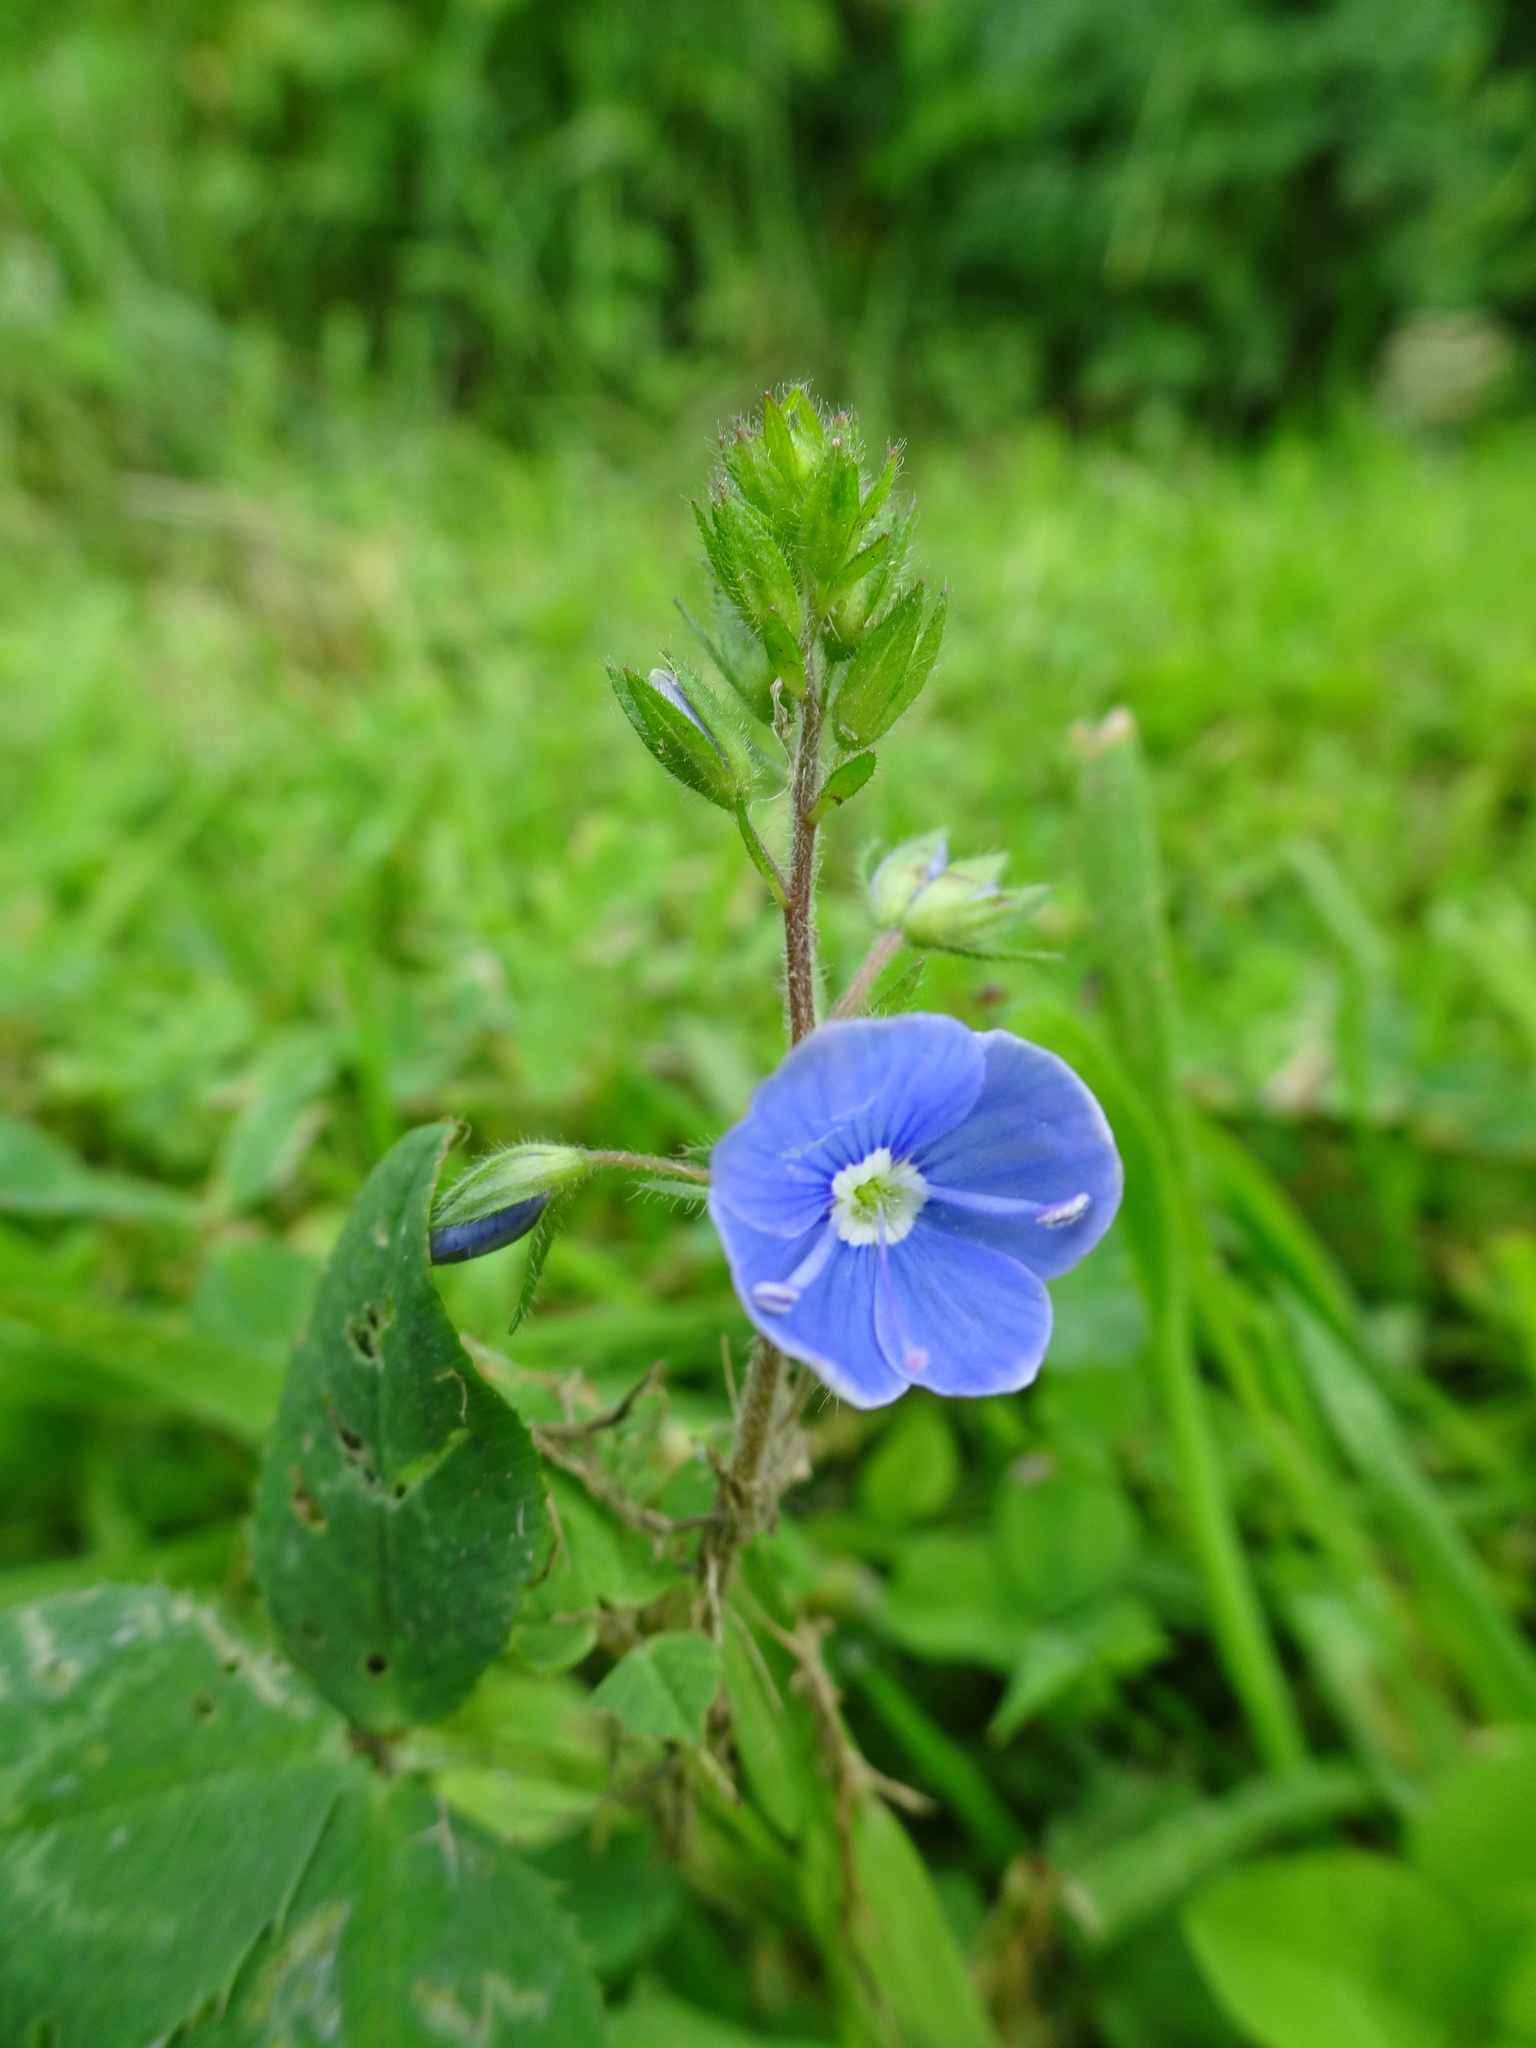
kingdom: Plantae
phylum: Tracheophyta
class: Magnoliopsida
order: Lamiales
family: Plantaginaceae
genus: Veronica
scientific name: Veronica chamaedrys
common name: Germander speedwell
